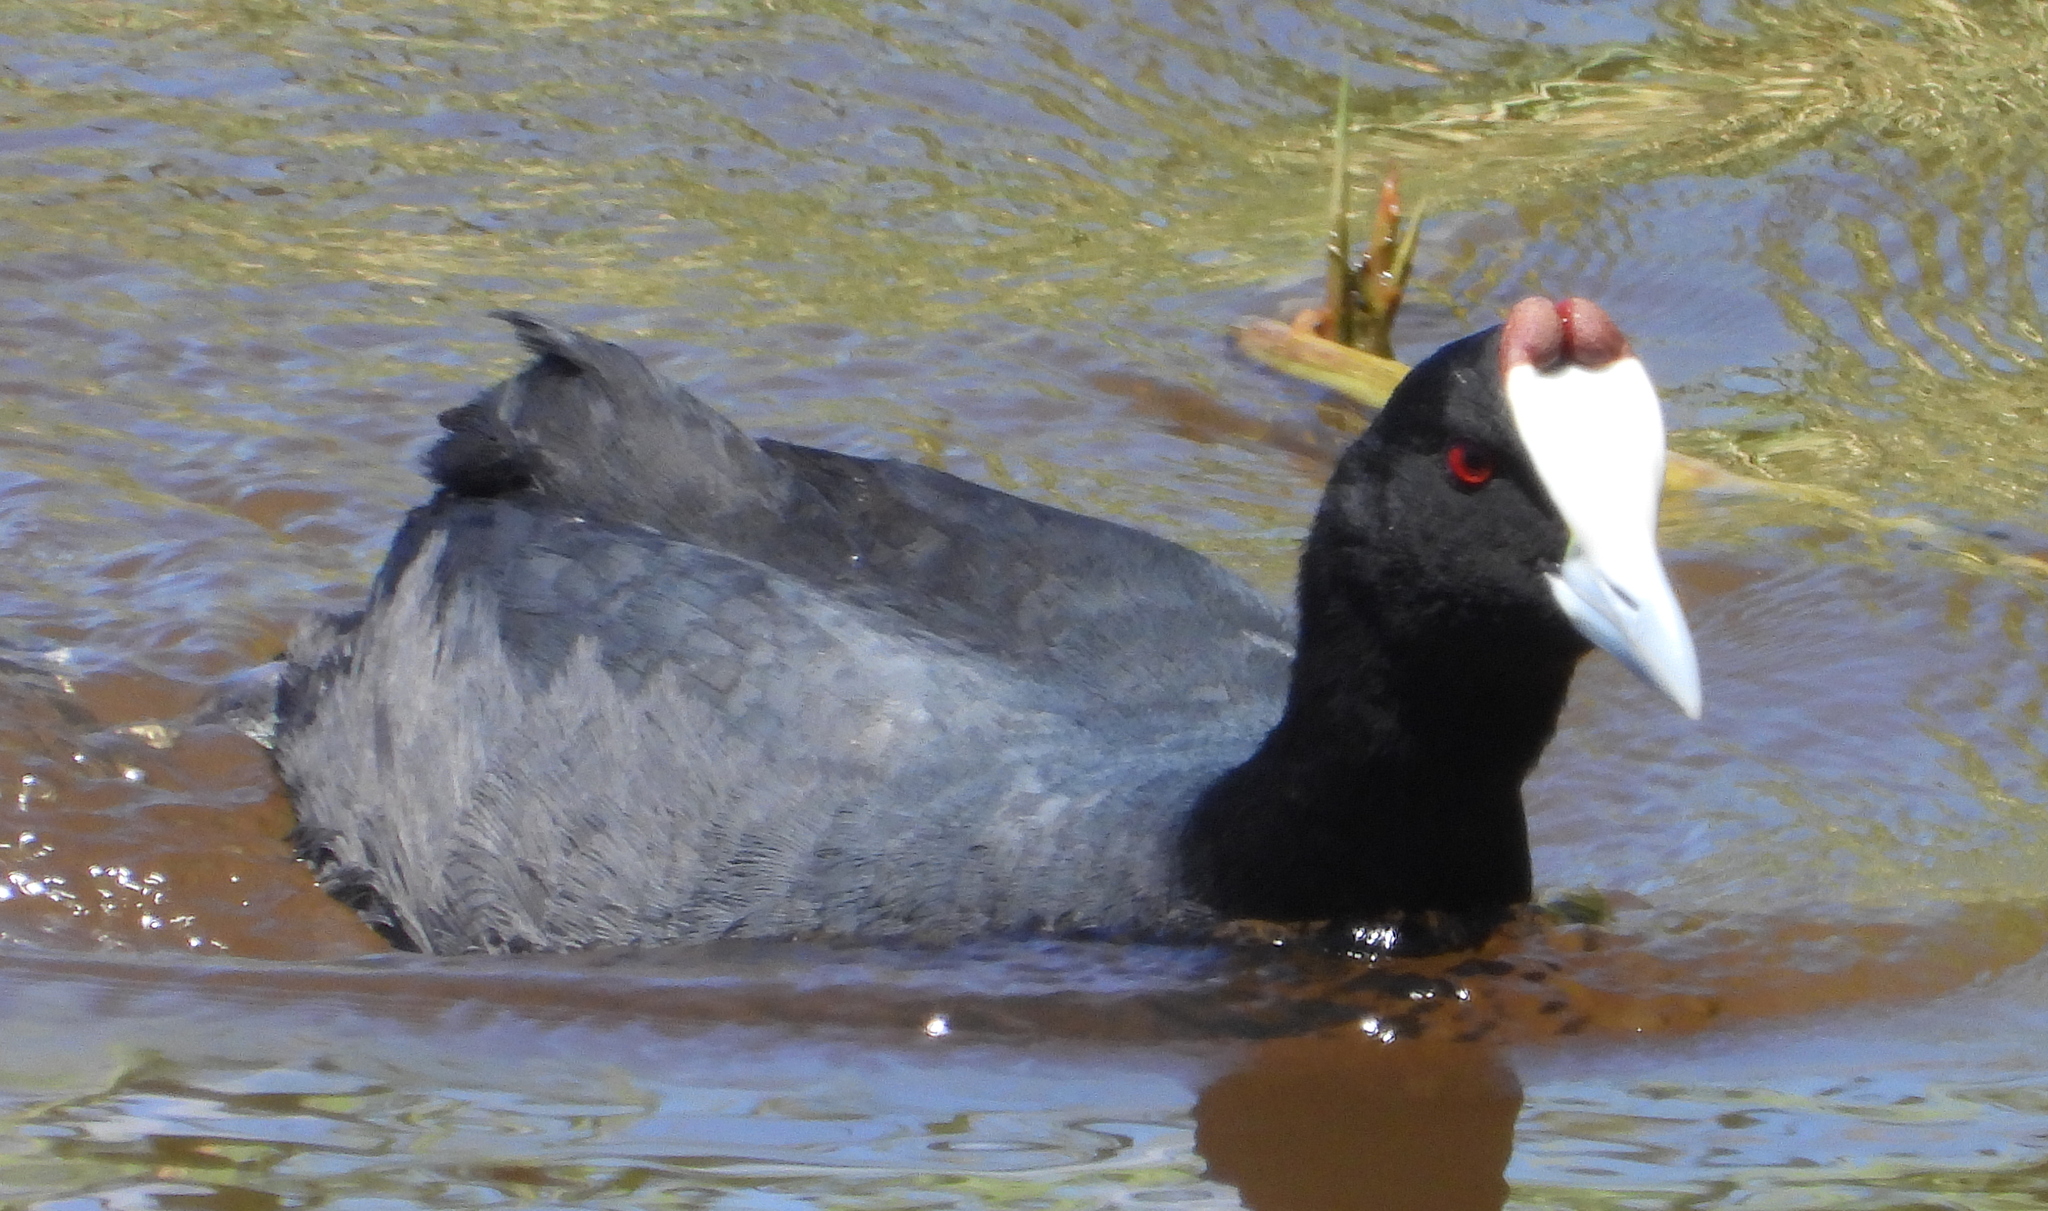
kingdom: Animalia
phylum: Chordata
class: Aves
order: Gruiformes
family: Rallidae
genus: Fulica
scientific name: Fulica cristata
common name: Red-knobbed coot
